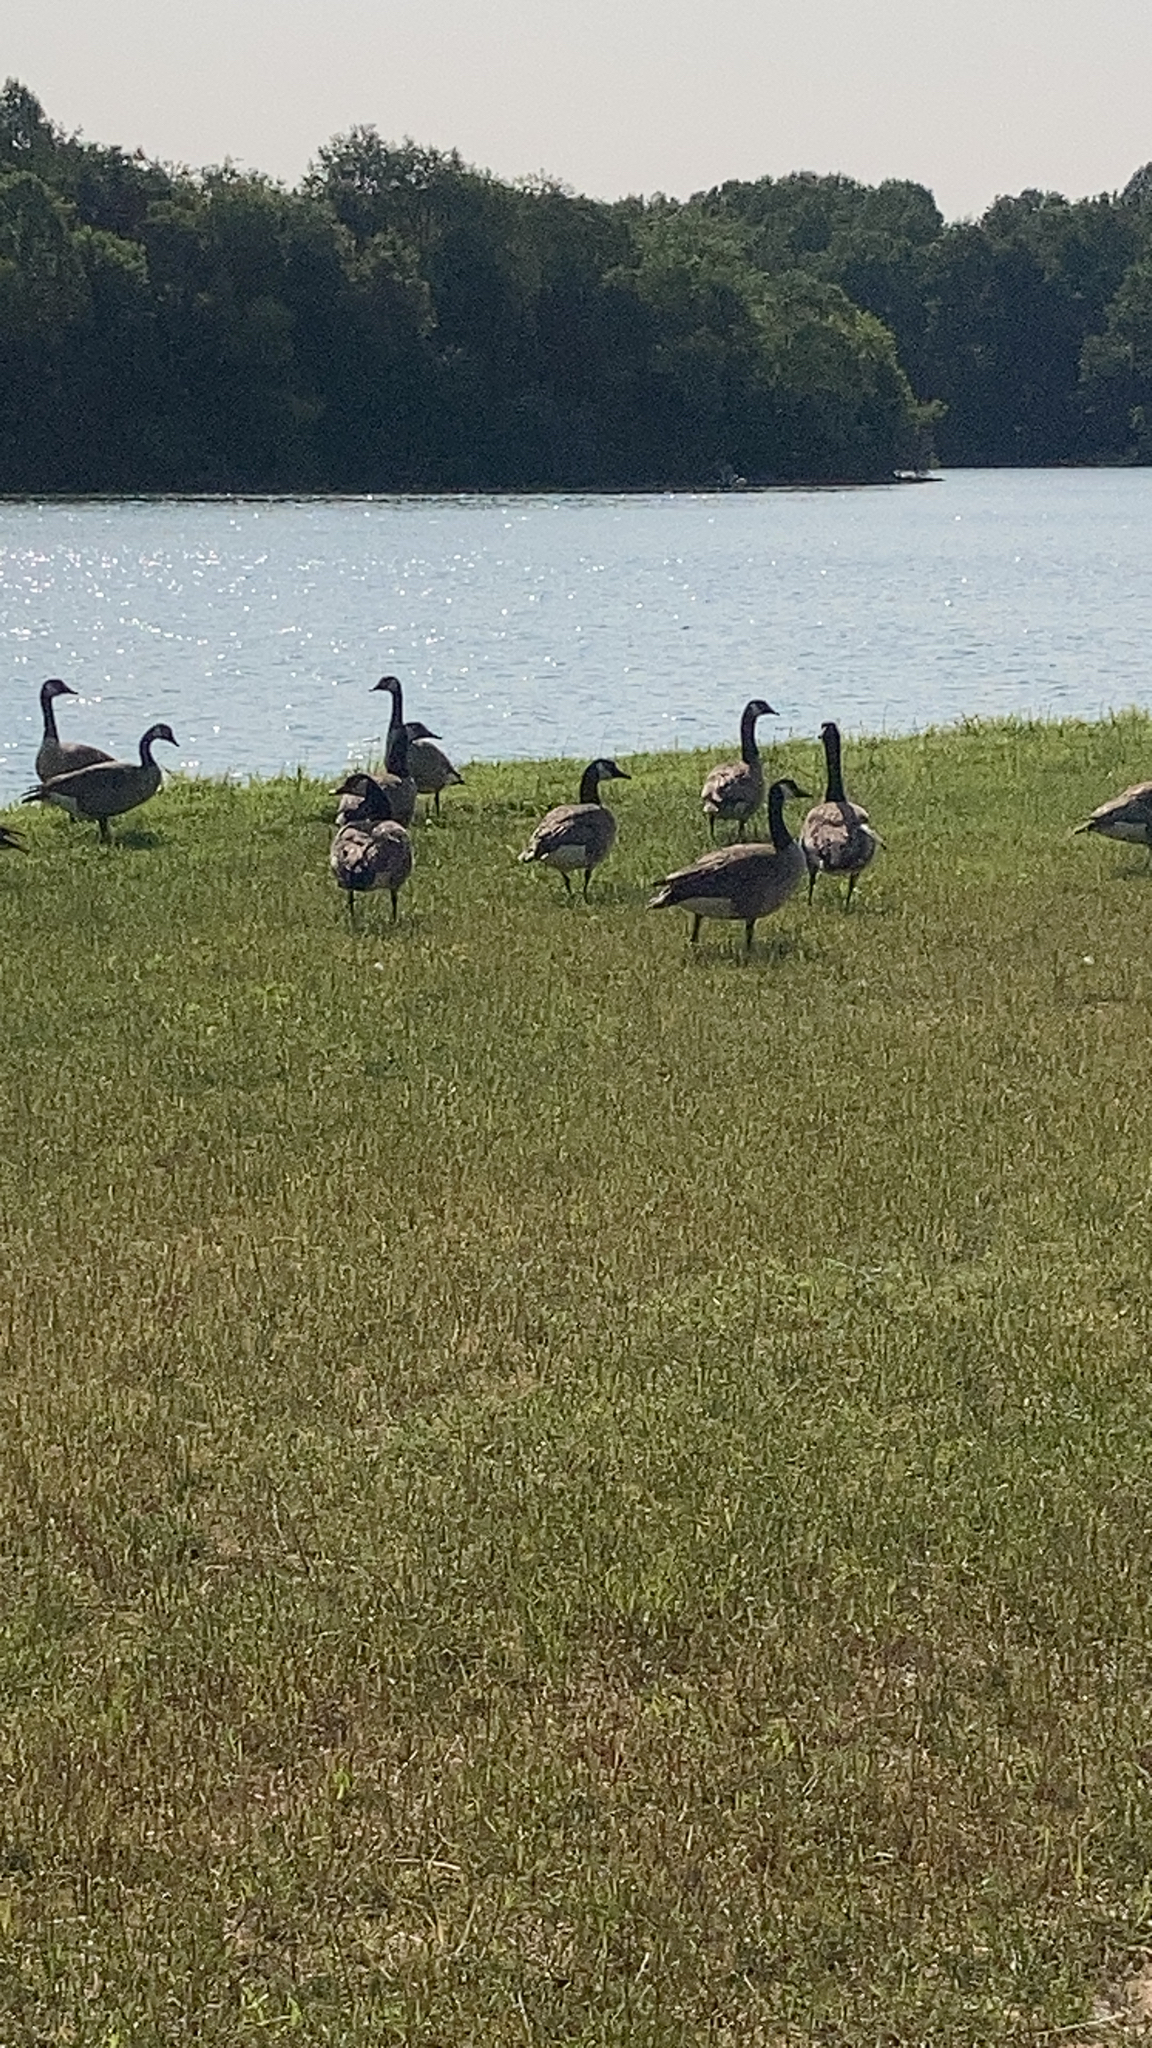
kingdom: Animalia
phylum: Chordata
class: Aves
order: Anseriformes
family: Anatidae
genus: Branta
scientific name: Branta canadensis
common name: Canada goose
